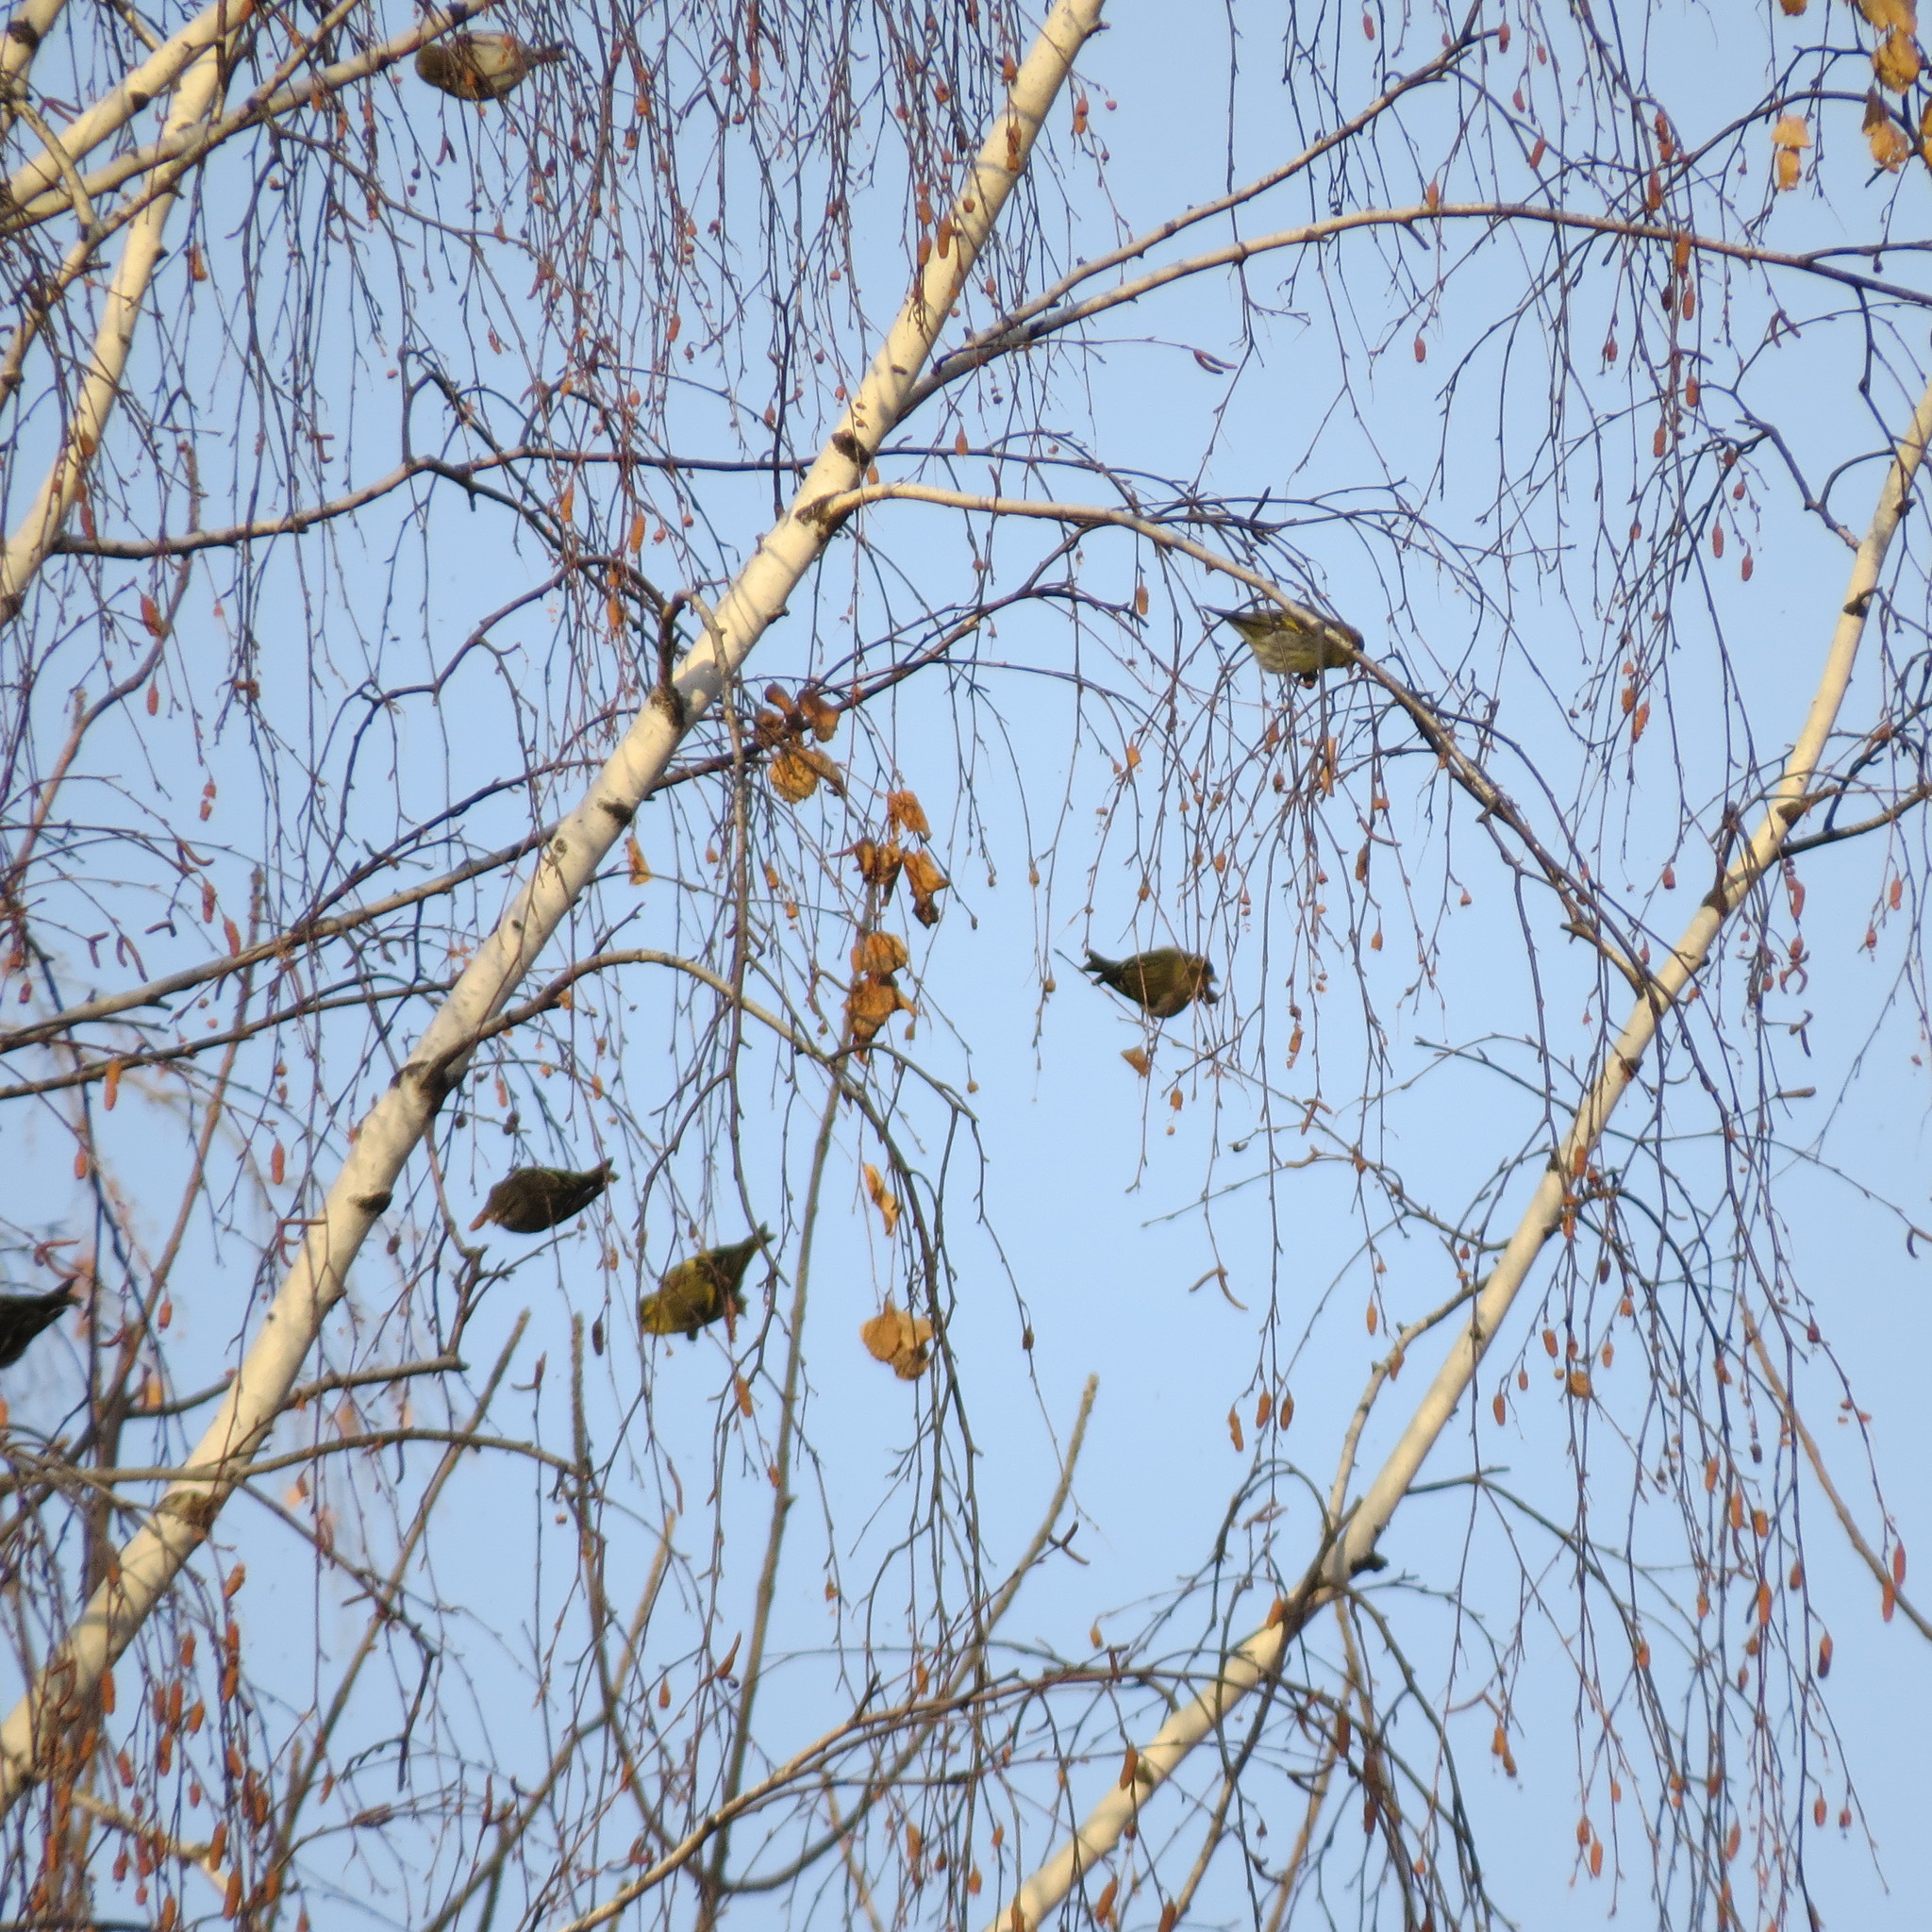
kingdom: Animalia
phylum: Chordata
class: Aves
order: Passeriformes
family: Fringillidae
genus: Spinus
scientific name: Spinus spinus
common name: Eurasian siskin
